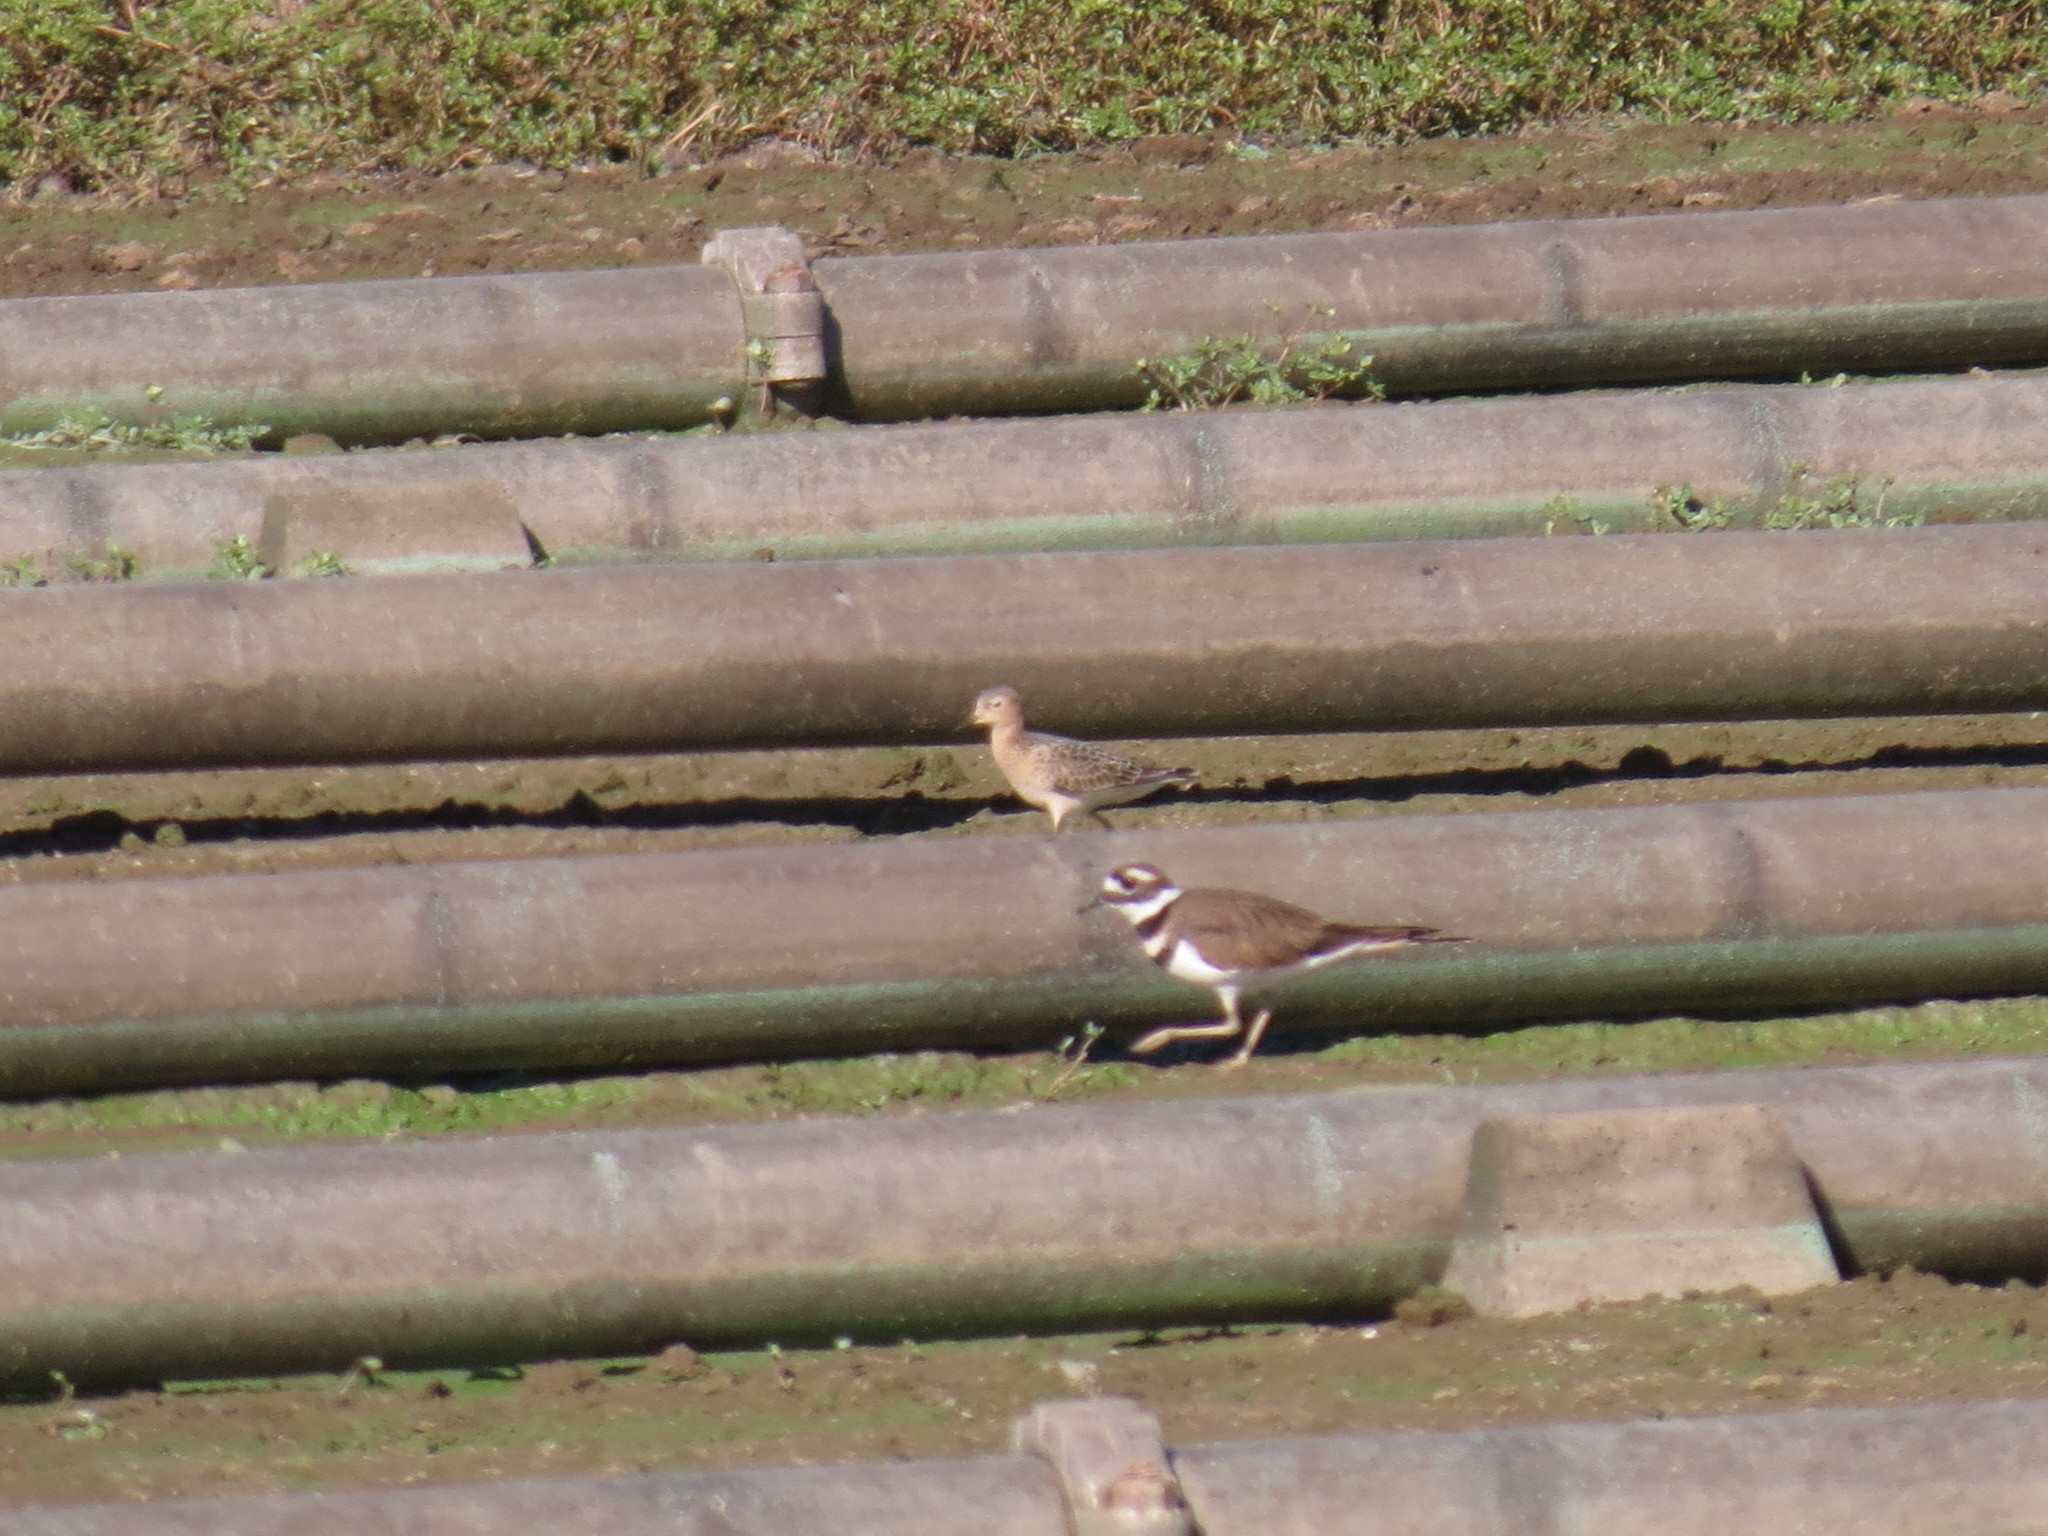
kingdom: Animalia
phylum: Chordata
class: Aves
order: Charadriiformes
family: Charadriidae
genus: Charadrius
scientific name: Charadrius vociferus
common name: Killdeer
